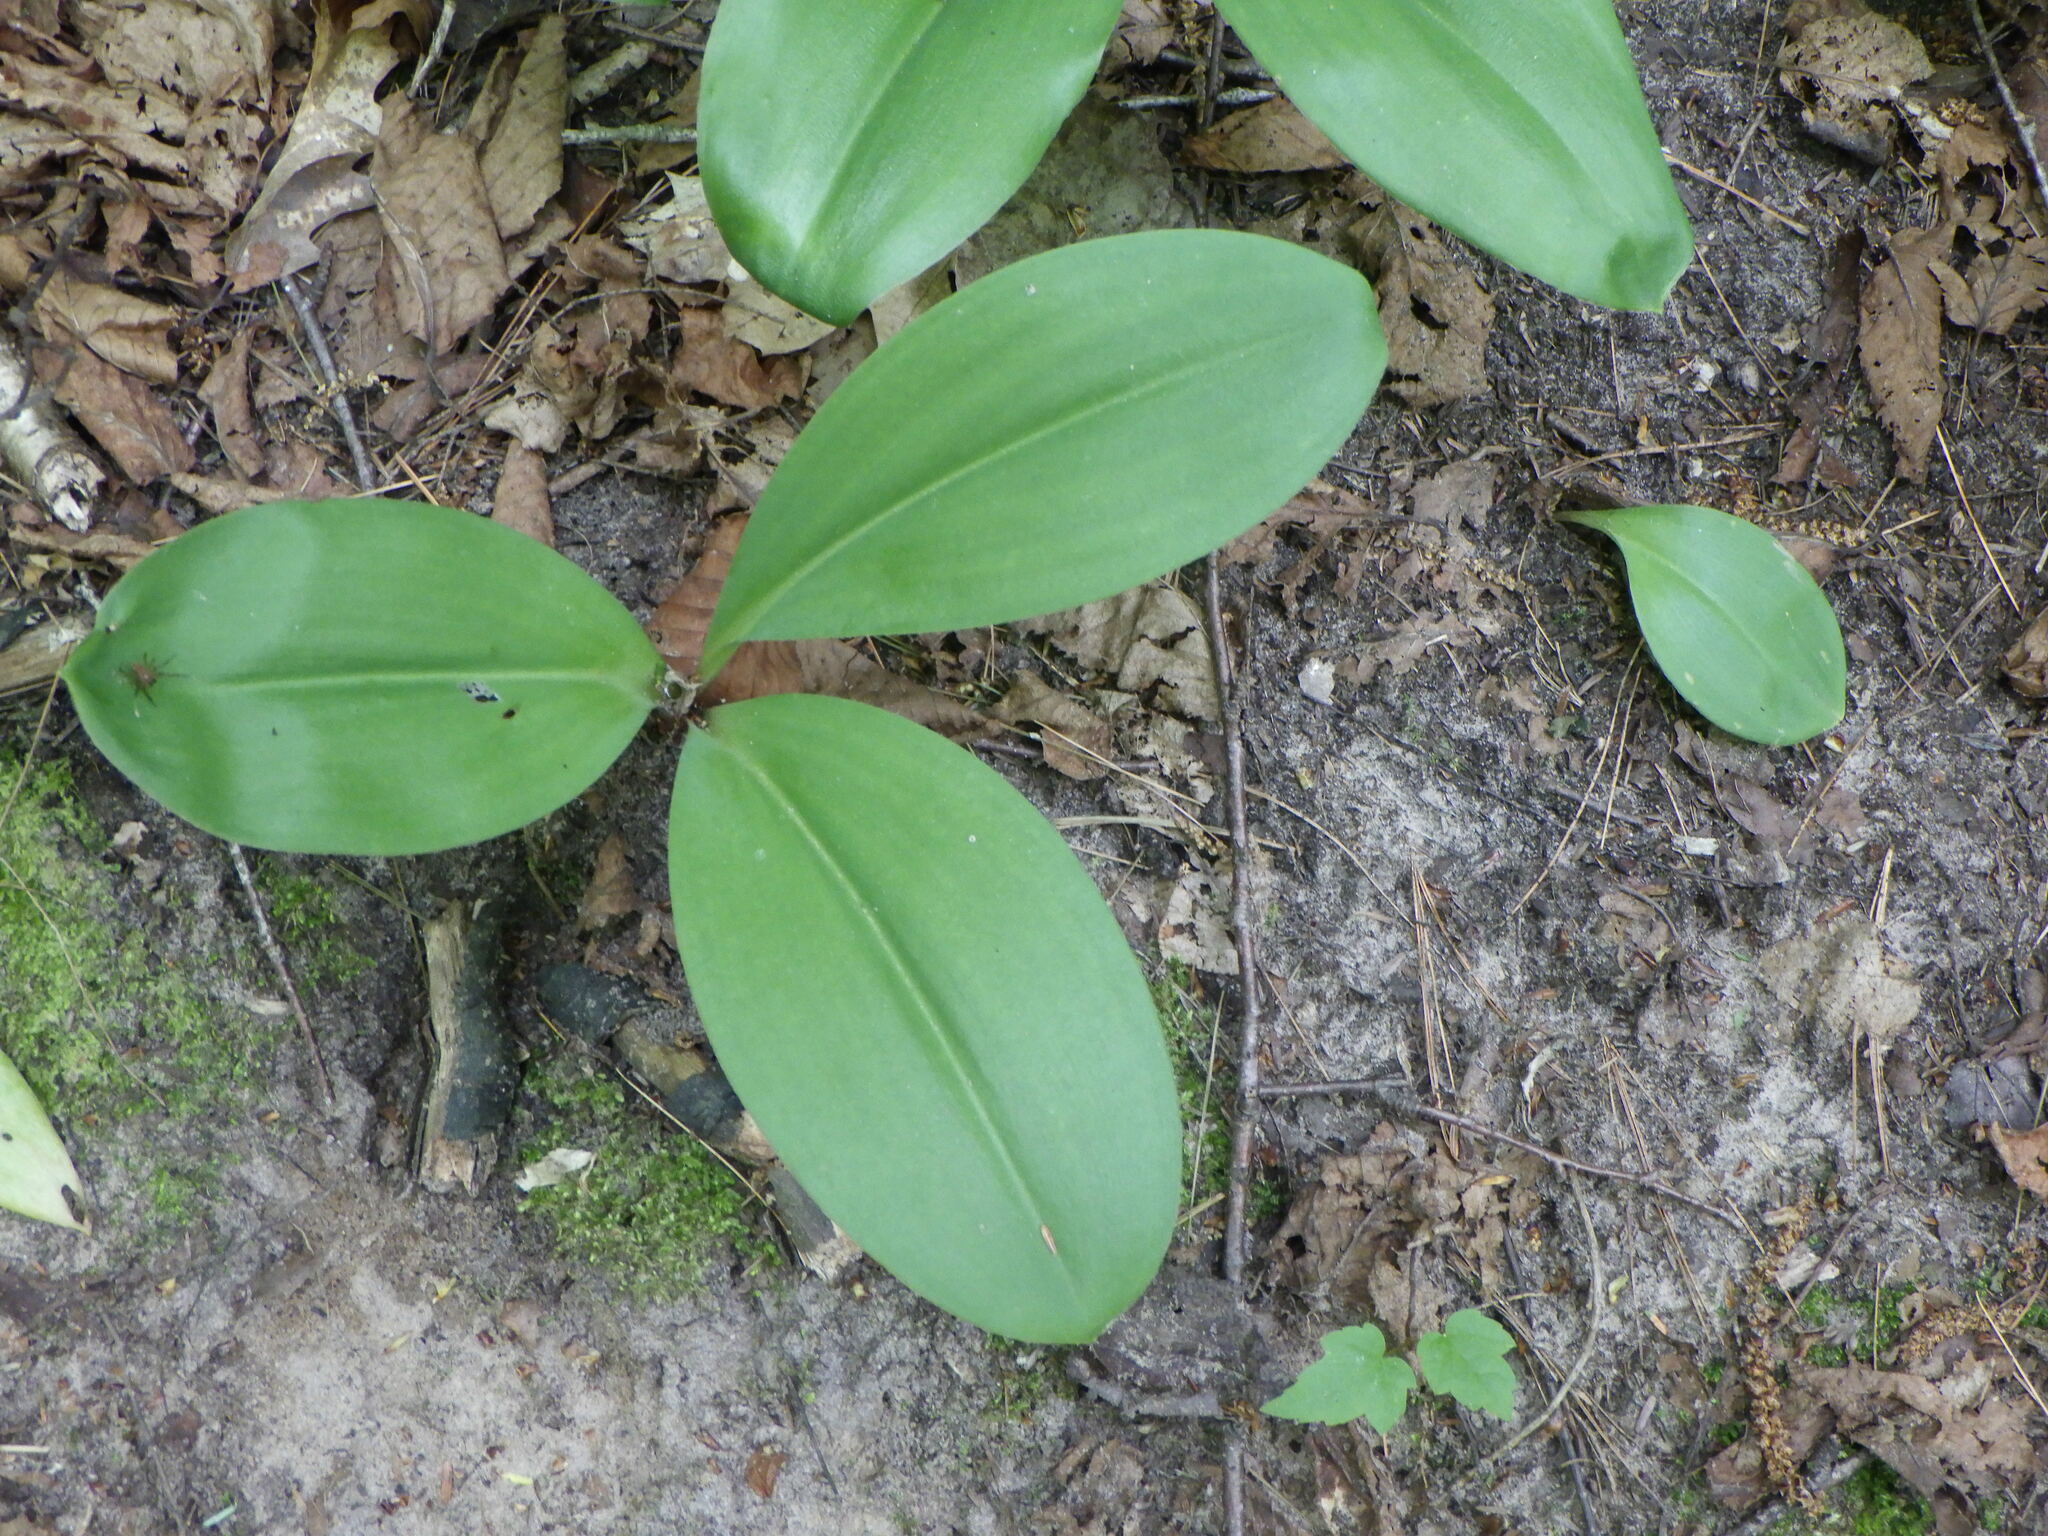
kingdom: Plantae
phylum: Tracheophyta
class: Liliopsida
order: Liliales
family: Liliaceae
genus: Clintonia
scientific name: Clintonia borealis
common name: Yellow clintonia
